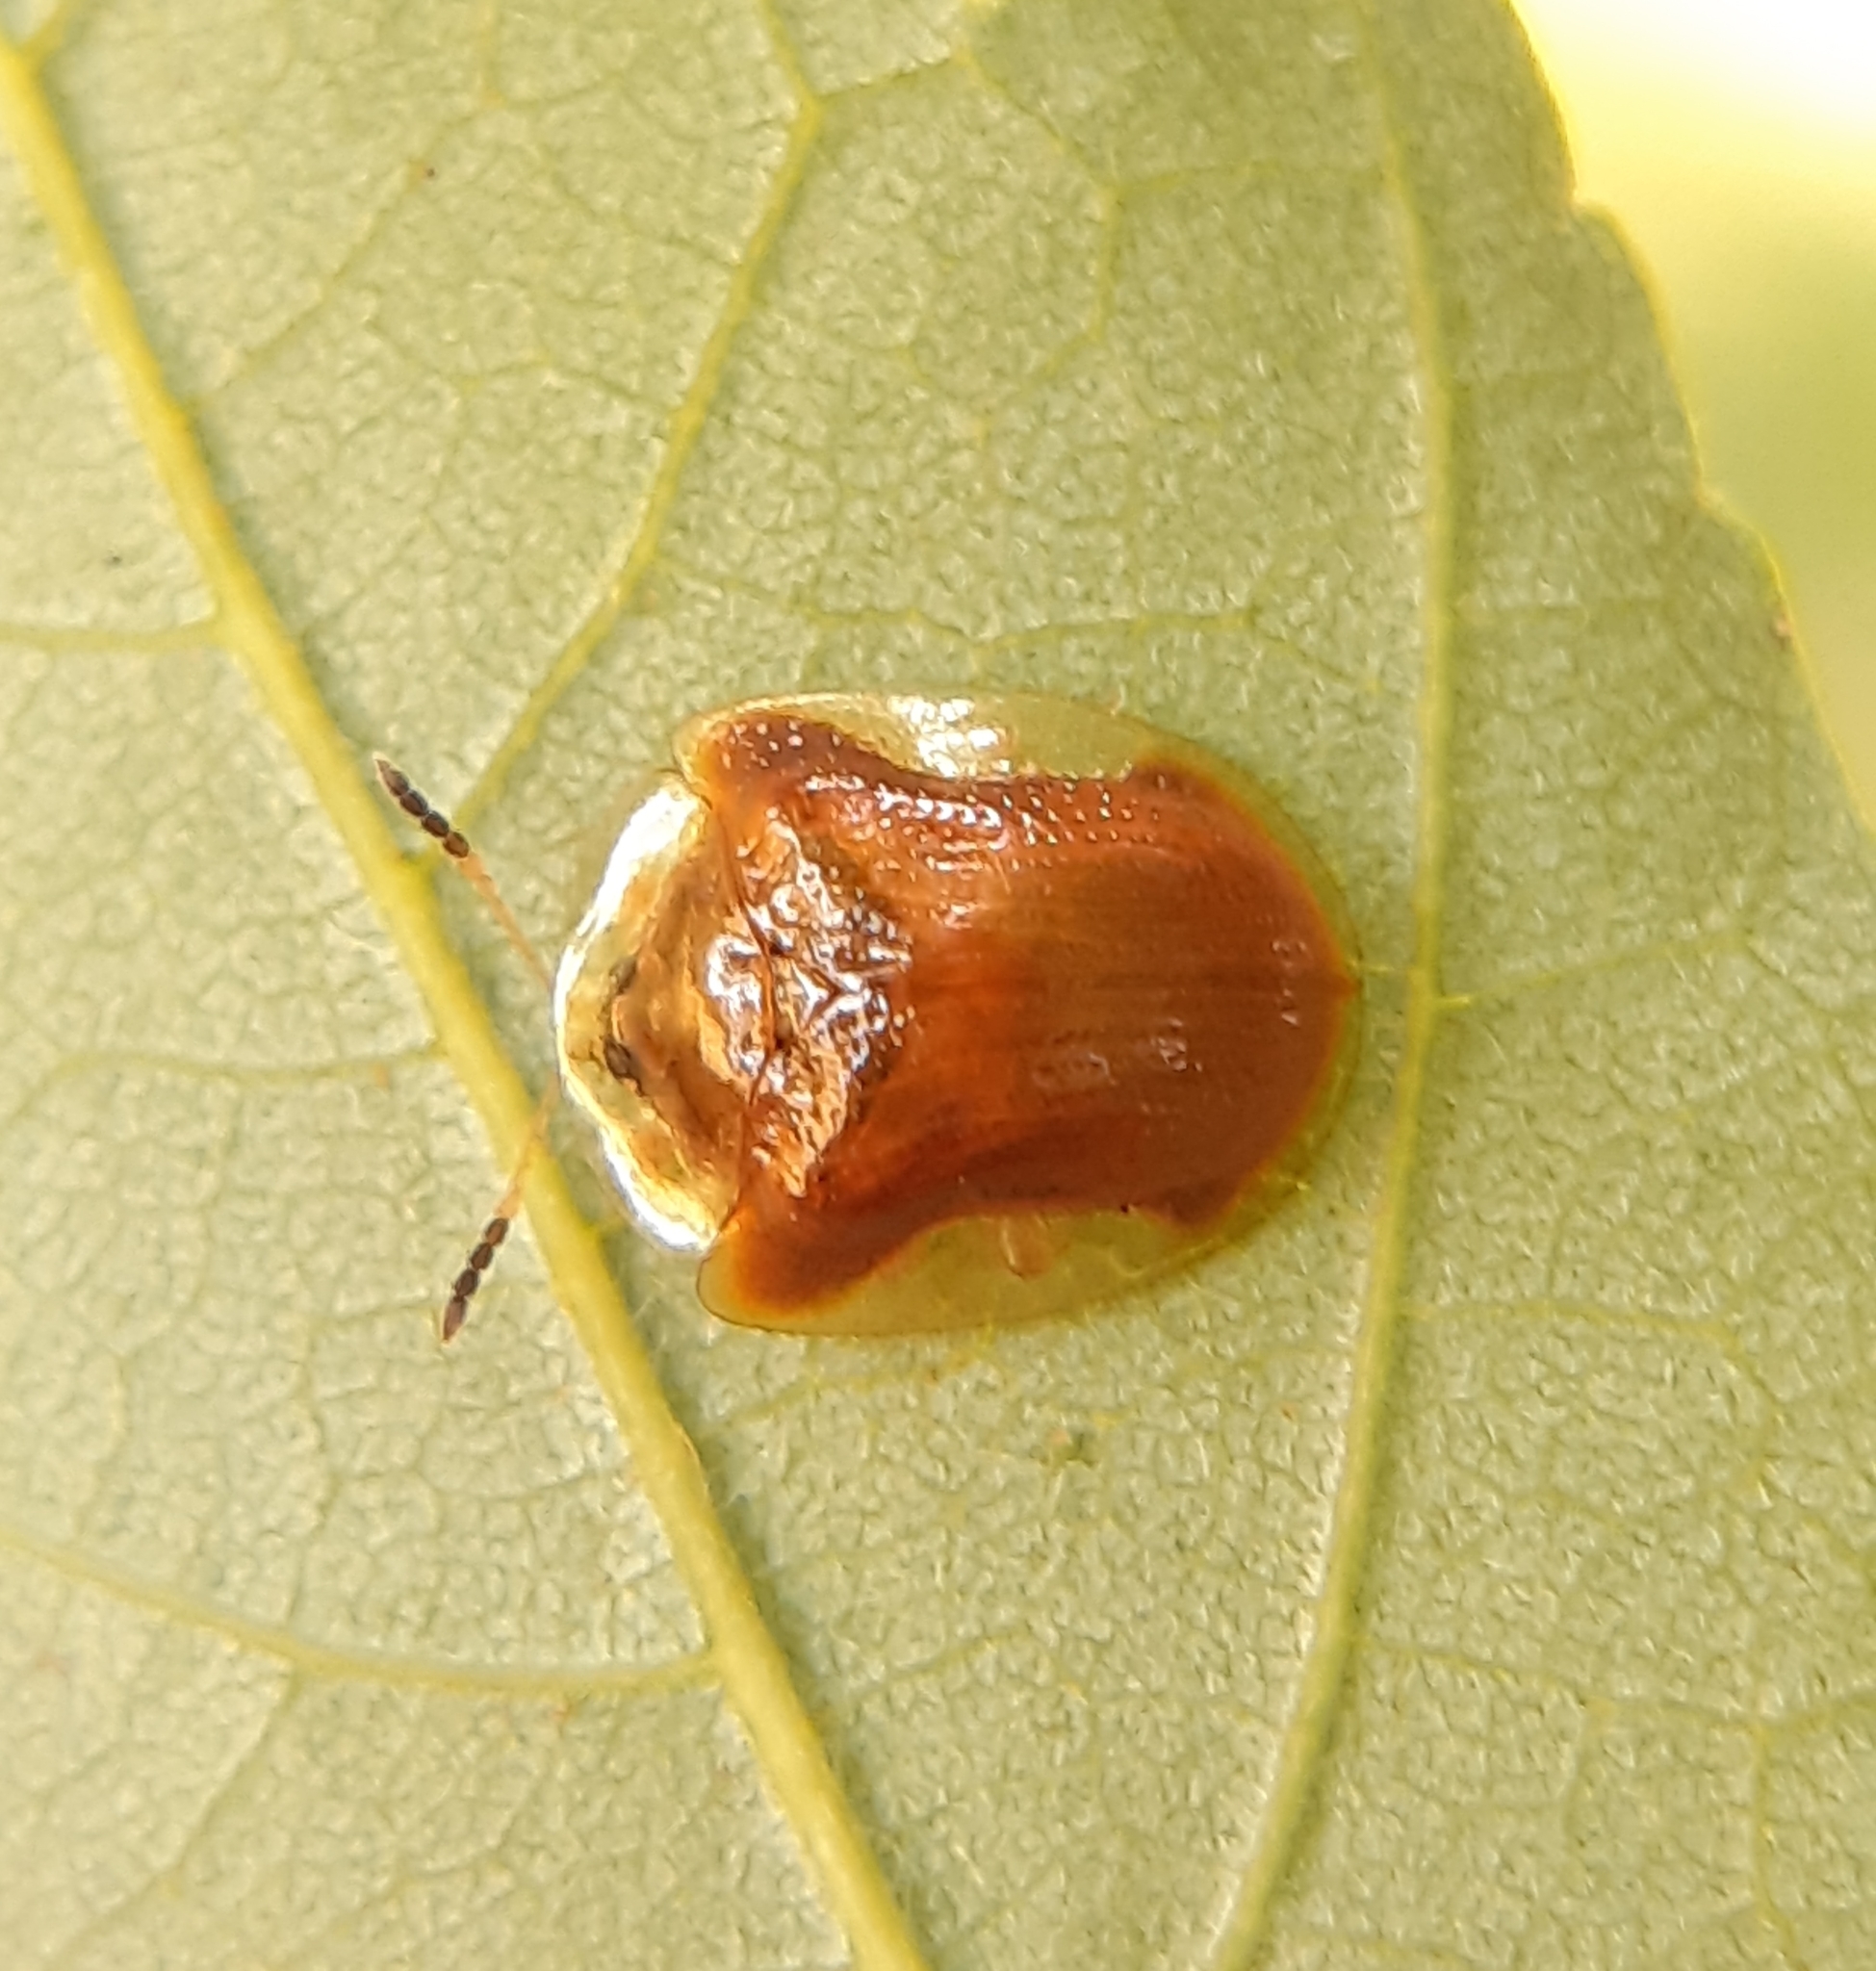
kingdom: Animalia
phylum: Arthropoda
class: Insecta
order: Coleoptera
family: Chrysomelidae
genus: Charidotella
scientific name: Charidotella purpurata
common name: Small orange tortoise beetle
